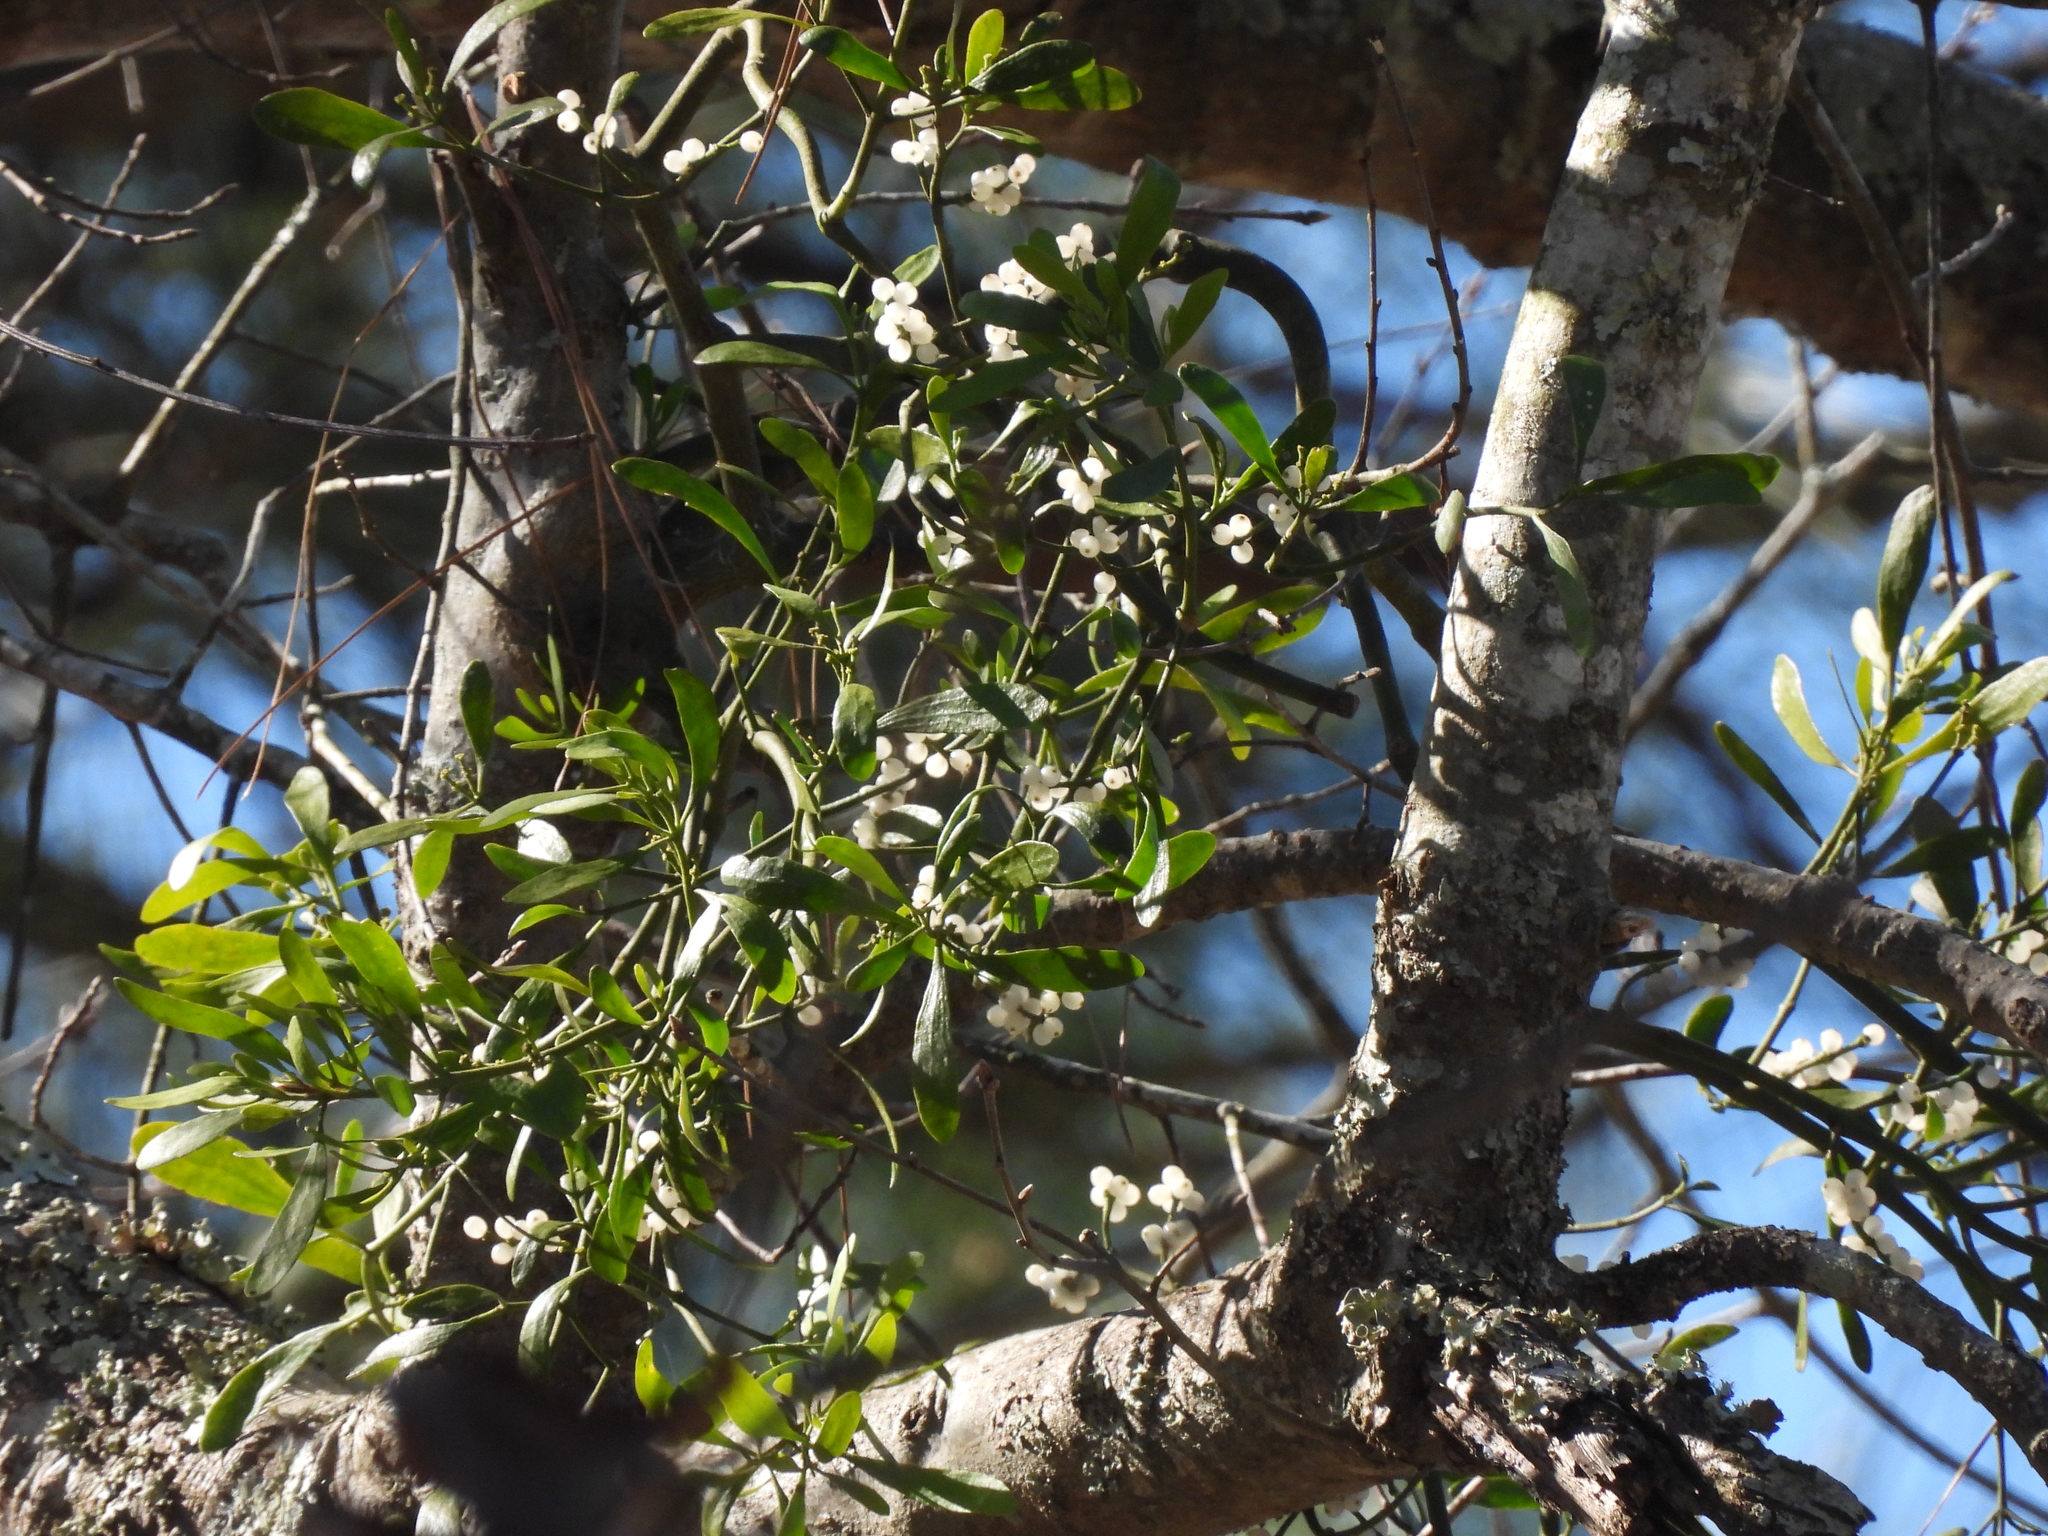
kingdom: Plantae
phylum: Tracheophyta
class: Magnoliopsida
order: Santalales
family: Viscaceae
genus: Phoradendron
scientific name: Phoradendron leucarpum
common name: Pacific mistletoe
